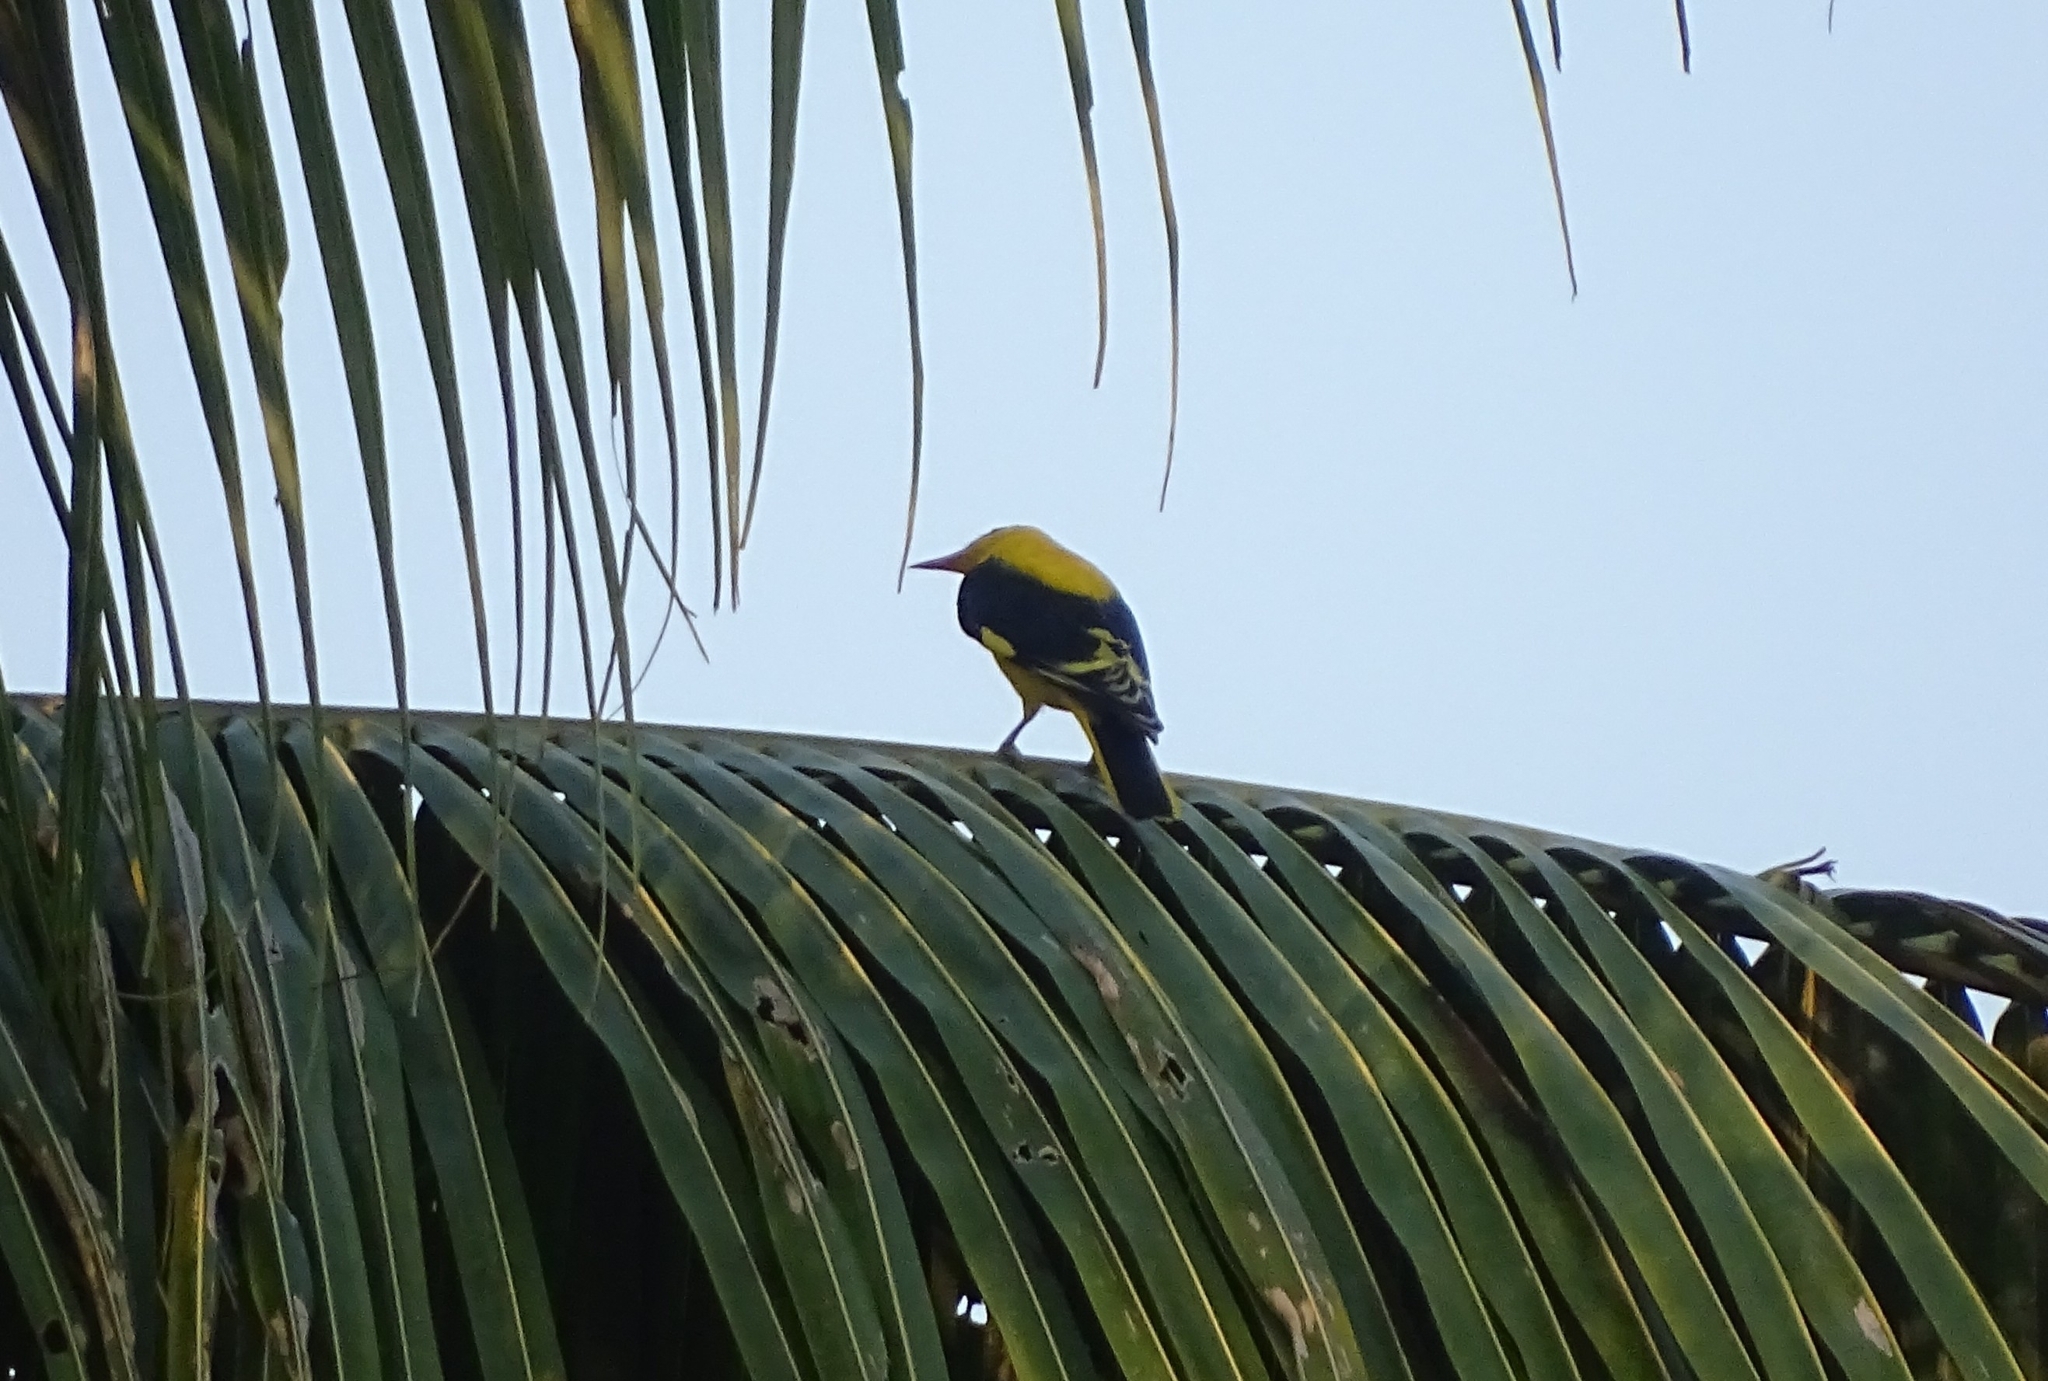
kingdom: Animalia
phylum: Chordata
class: Aves
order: Passeriformes
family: Oriolidae
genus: Oriolus
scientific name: Oriolus kundoo
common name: Indian golden oriole
